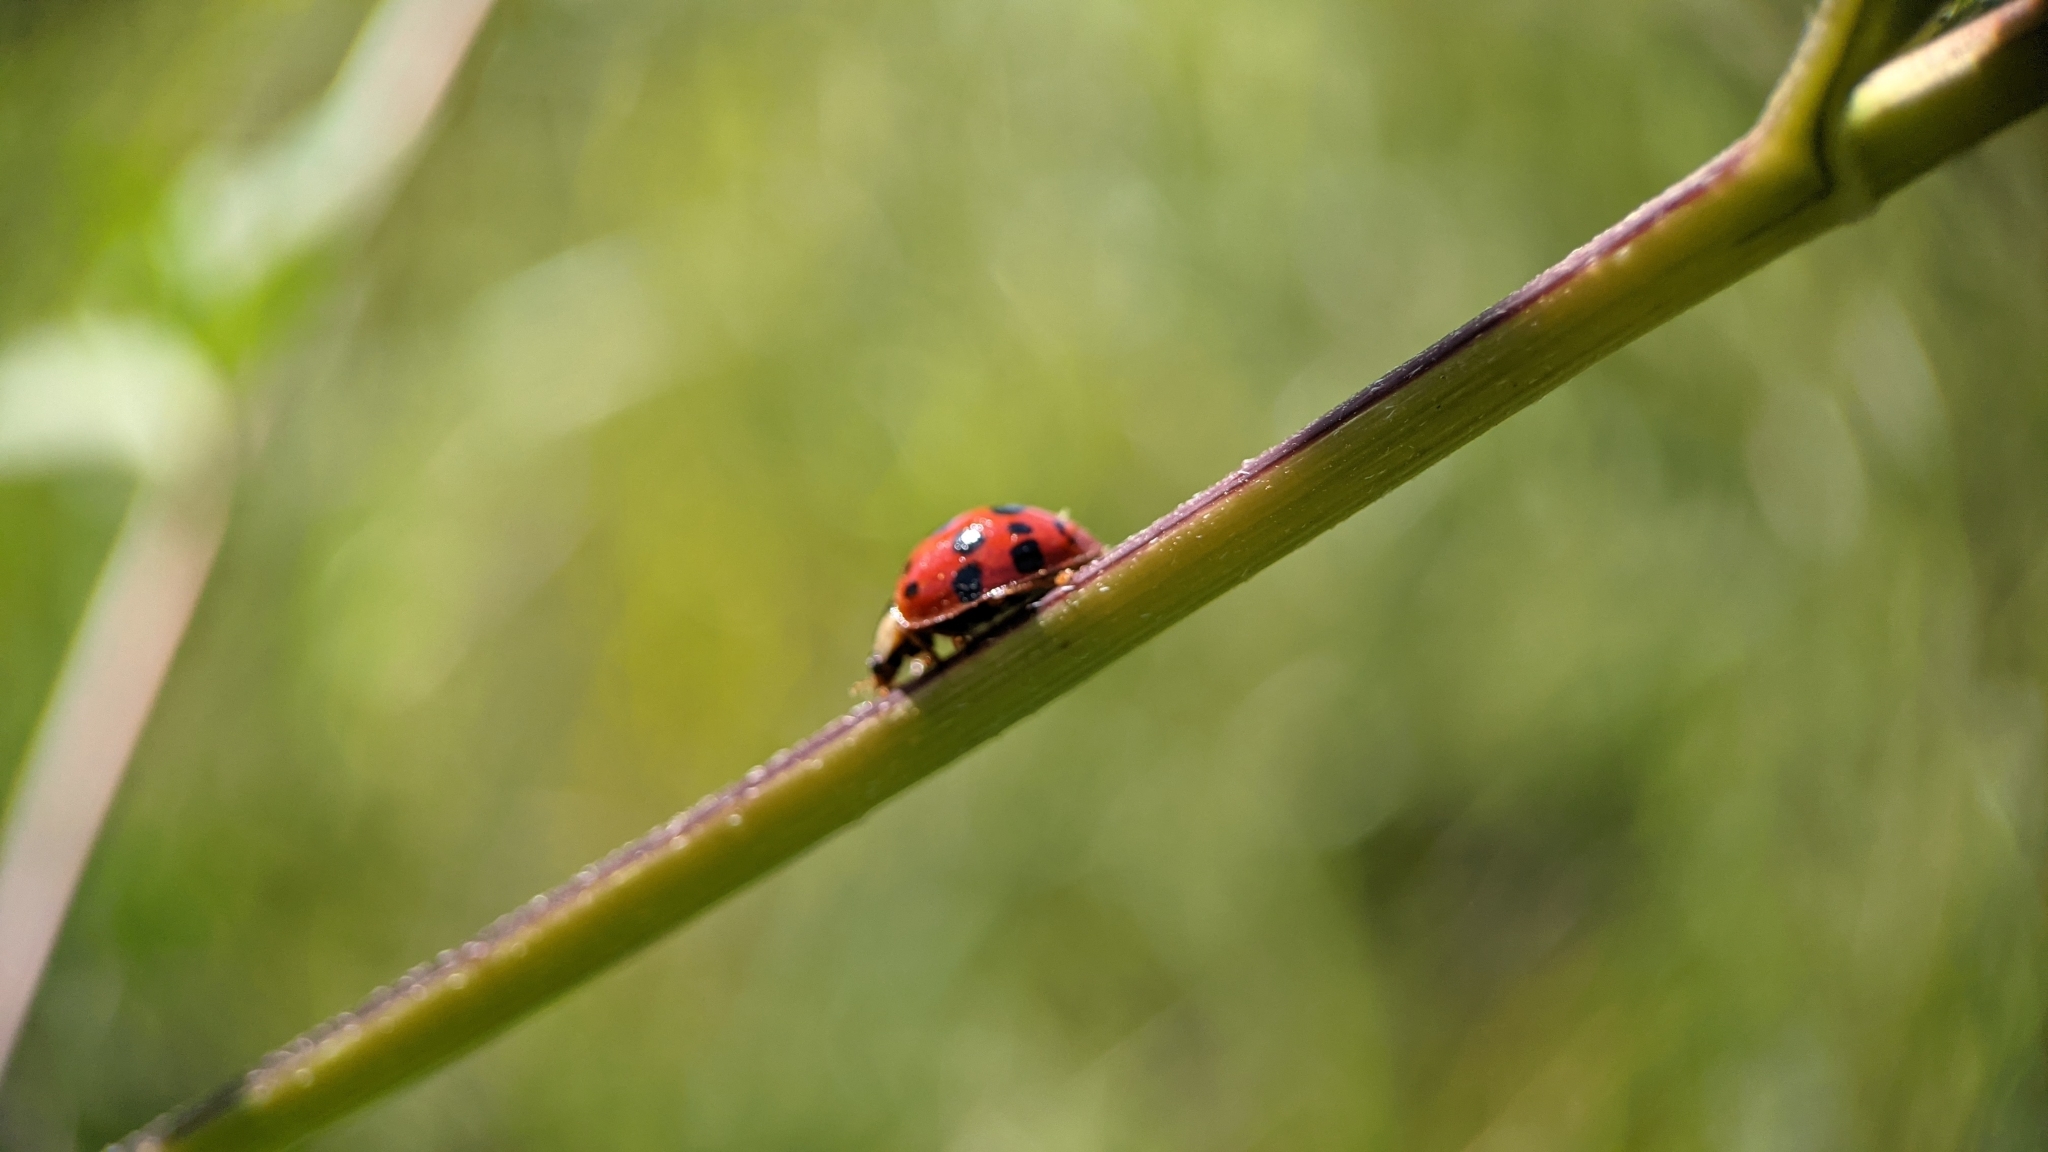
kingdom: Animalia
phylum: Arthropoda
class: Insecta
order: Coleoptera
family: Coccinellidae
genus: Harmonia
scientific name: Harmonia axyridis
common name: Harlequin ladybird
